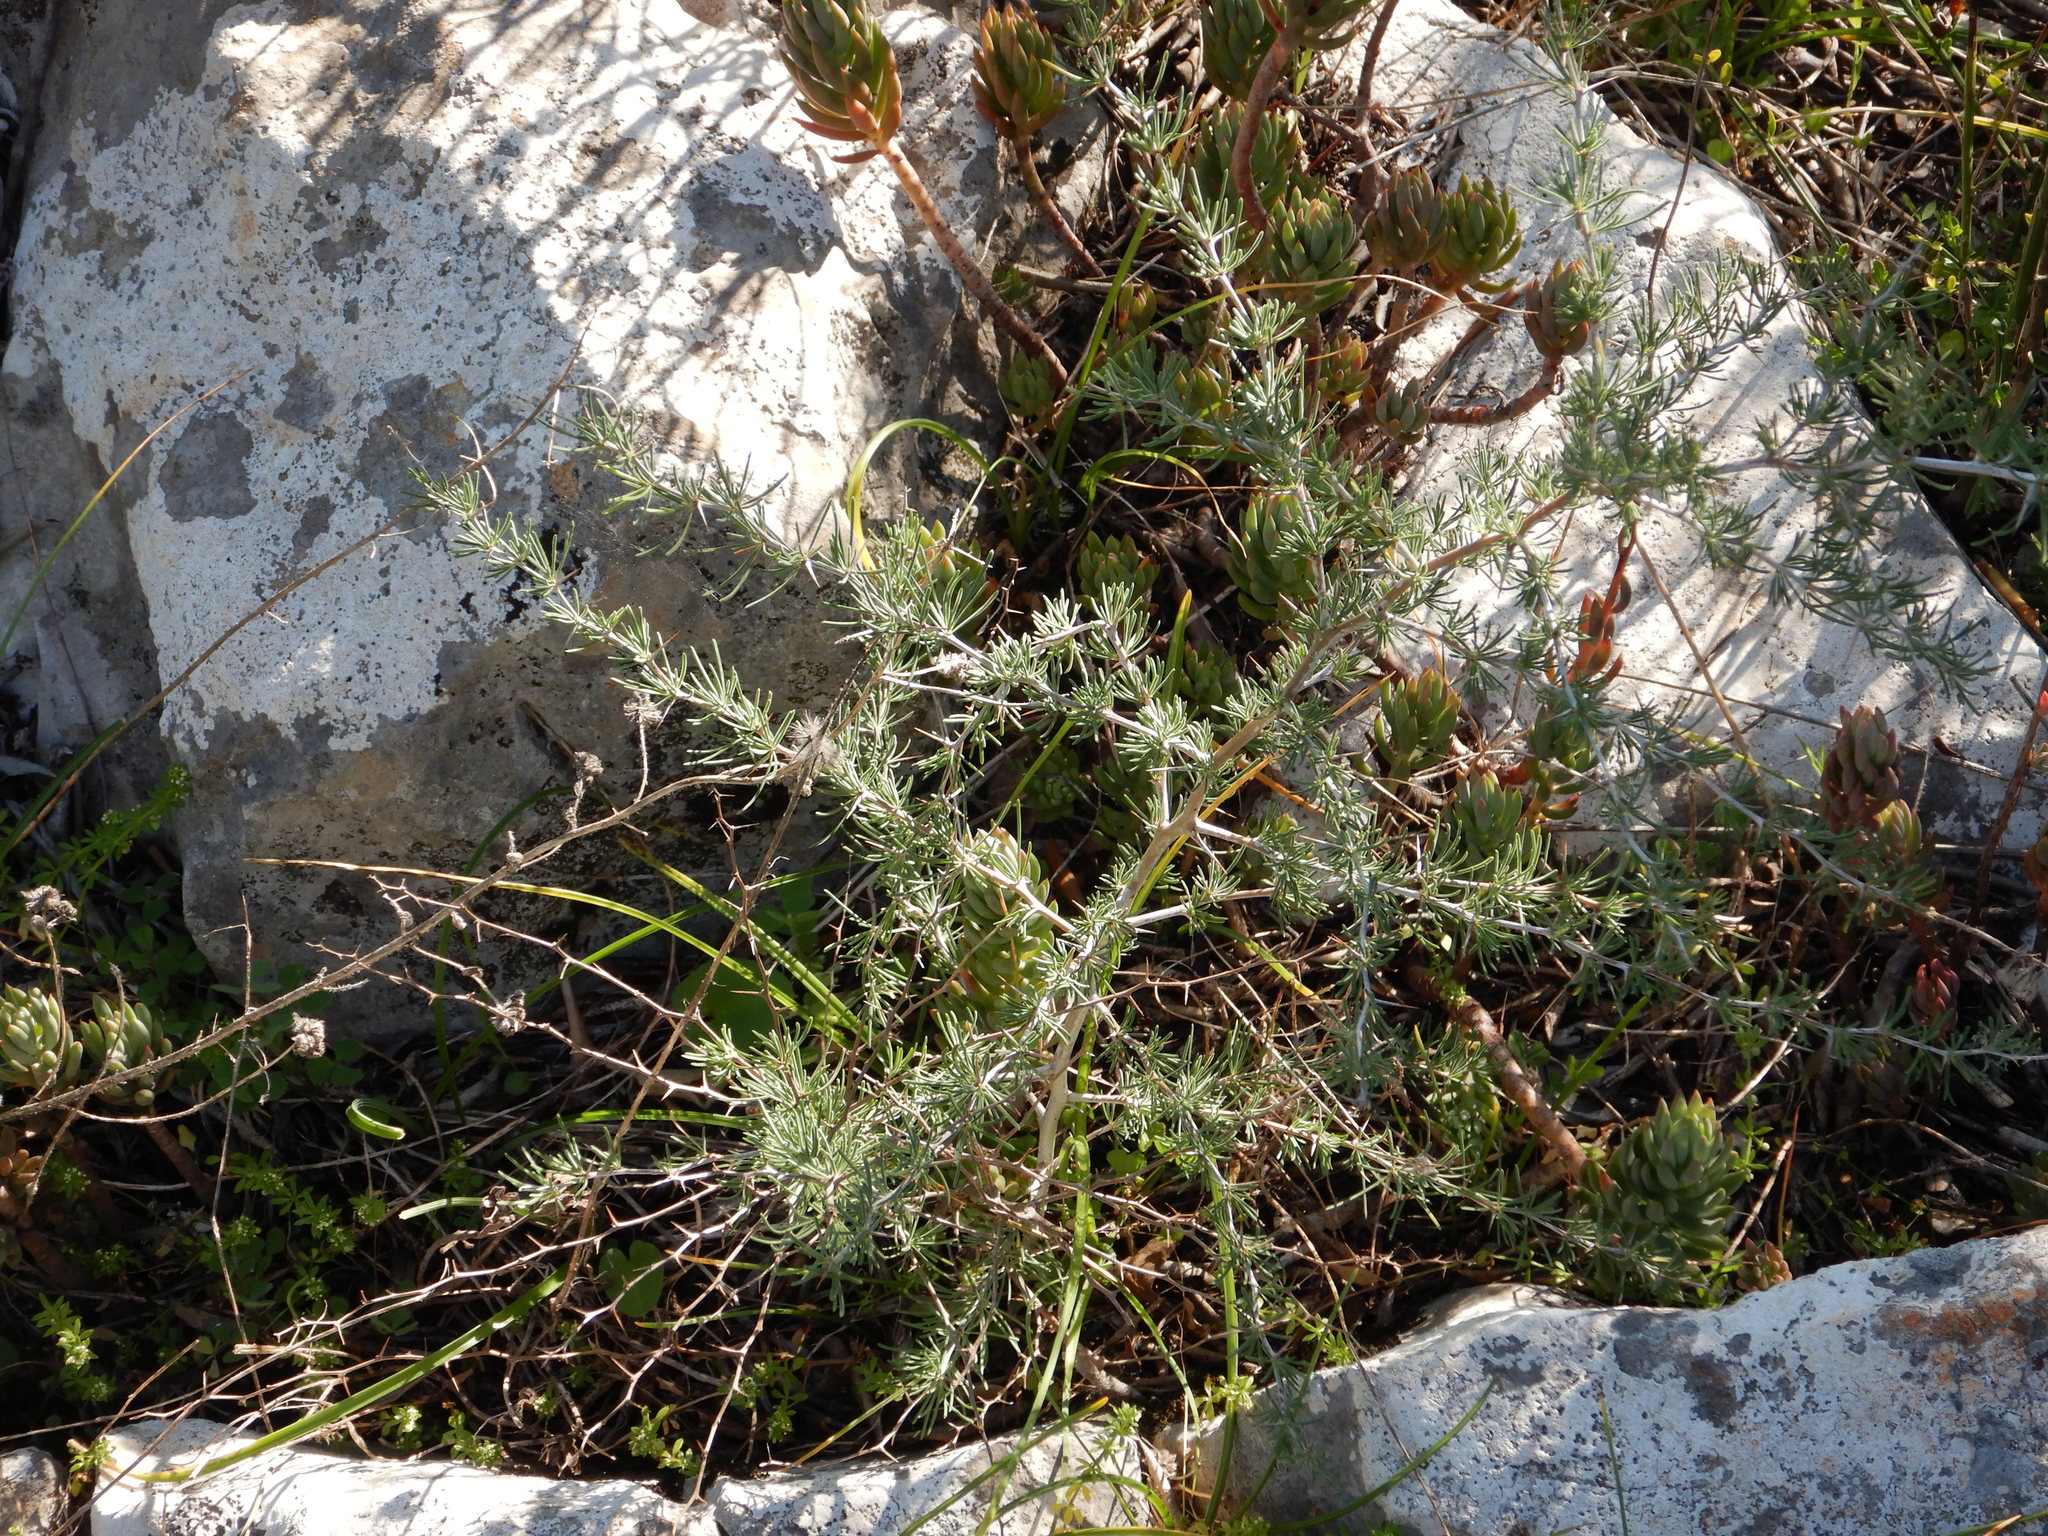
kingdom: Plantae
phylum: Tracheophyta
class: Liliopsida
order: Asparagales
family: Asparagaceae
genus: Asparagus
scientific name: Asparagus albus
